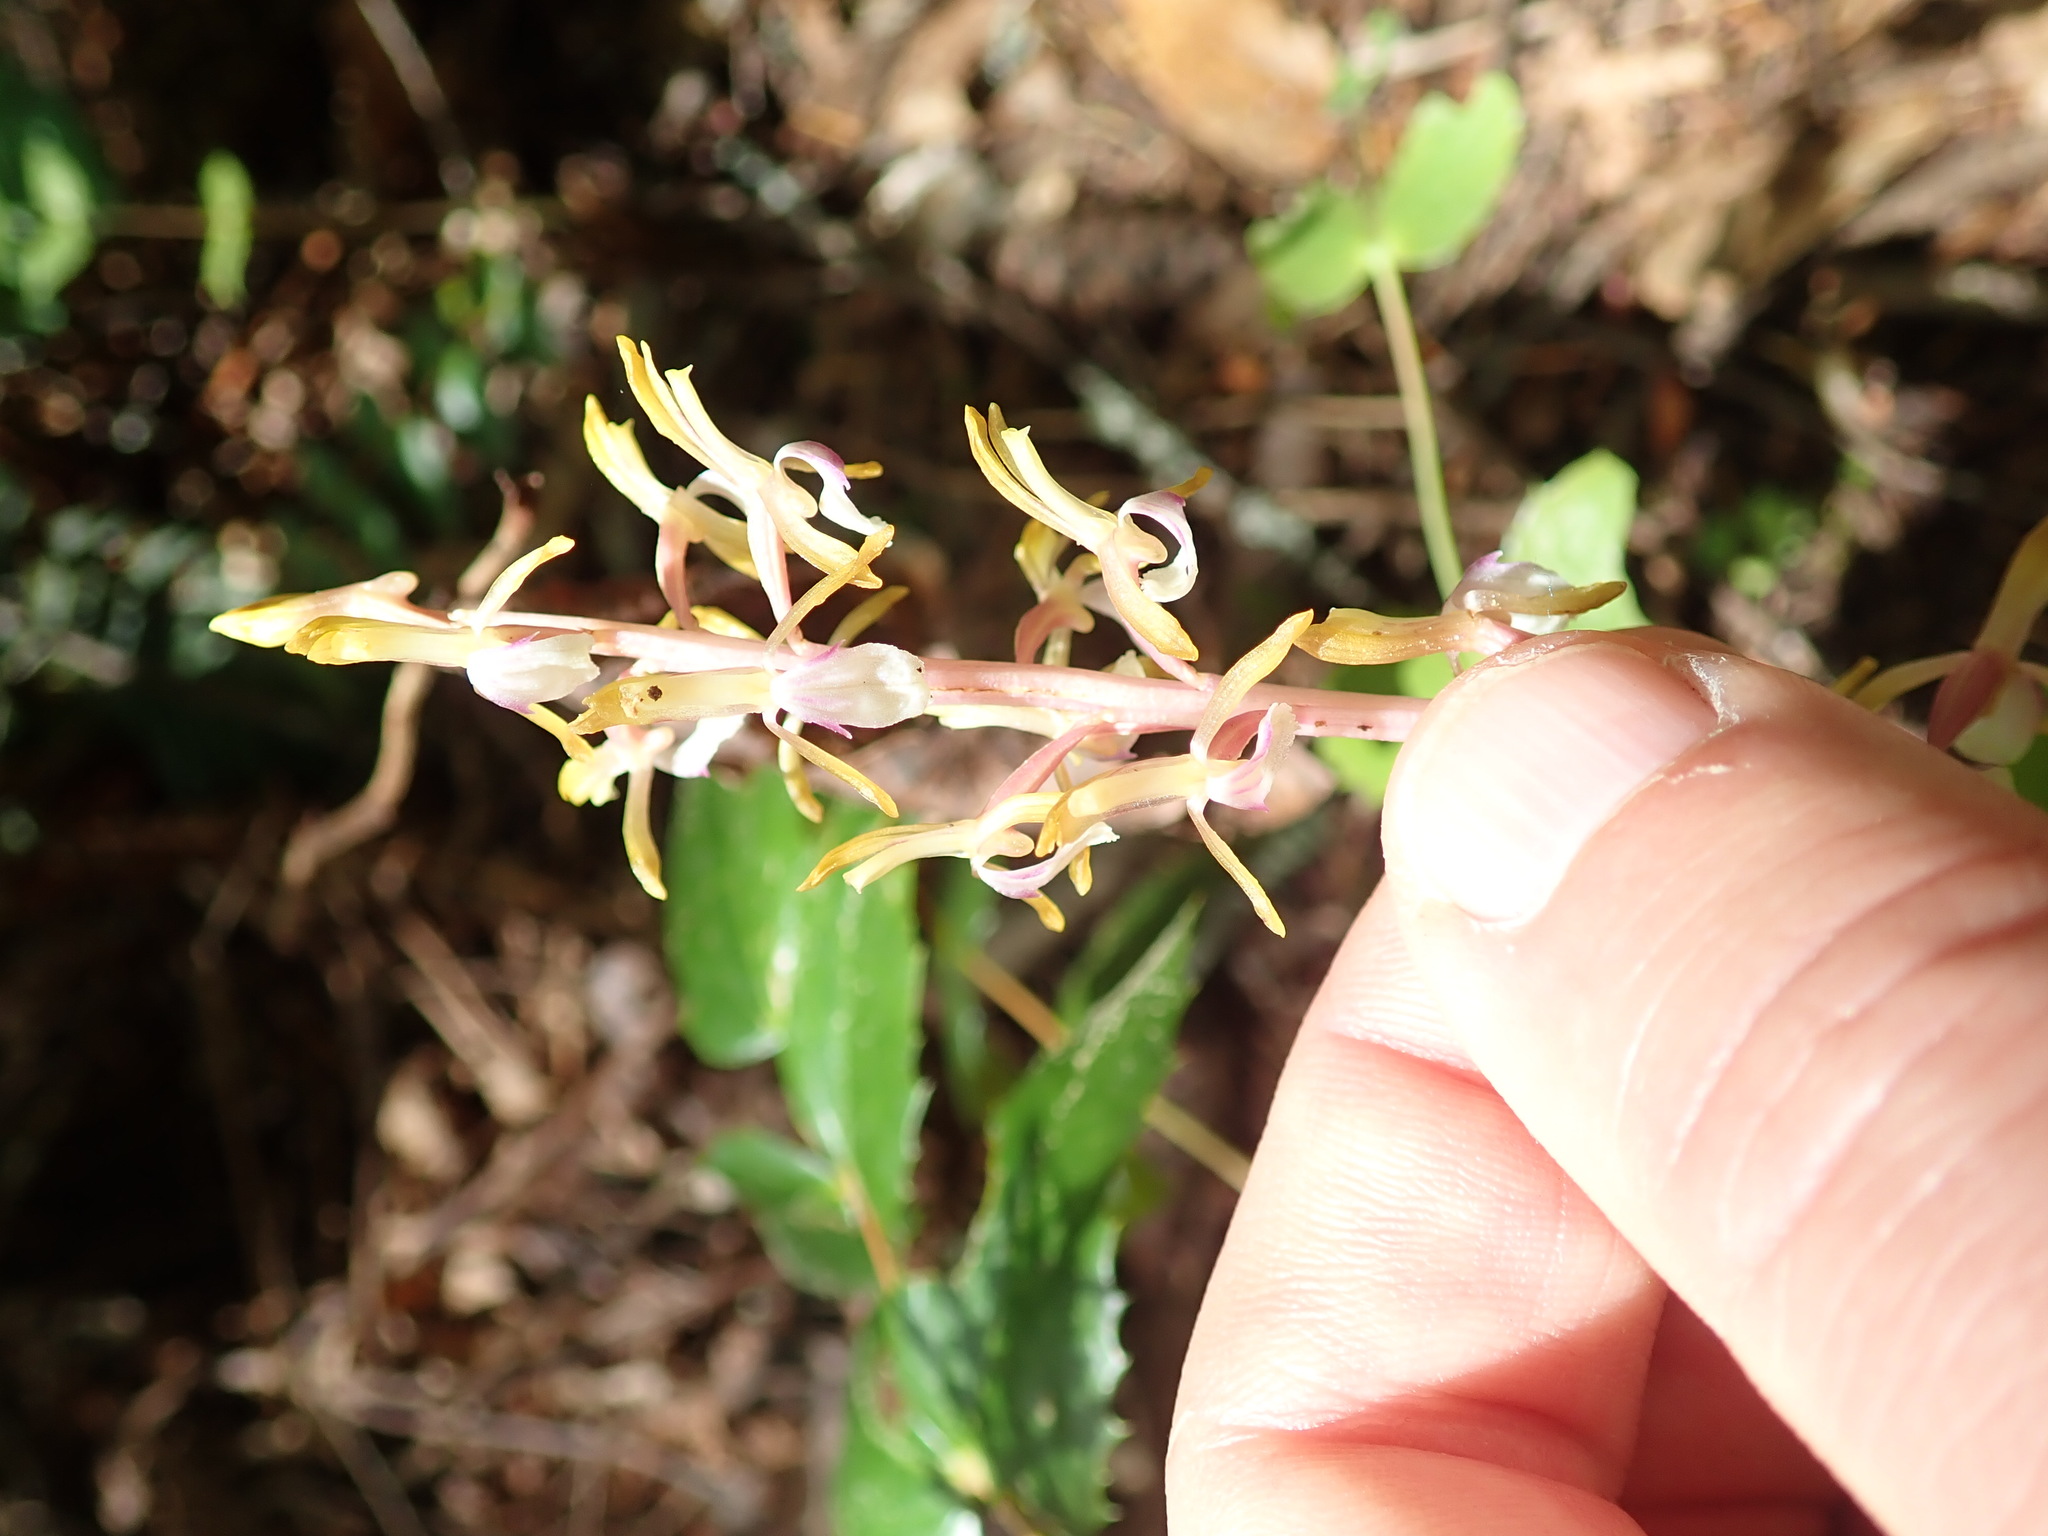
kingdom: Plantae
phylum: Tracheophyta
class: Liliopsida
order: Asparagales
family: Orchidaceae
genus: Corallorhiza
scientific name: Corallorhiza mertensiana
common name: Pacific coralroot
